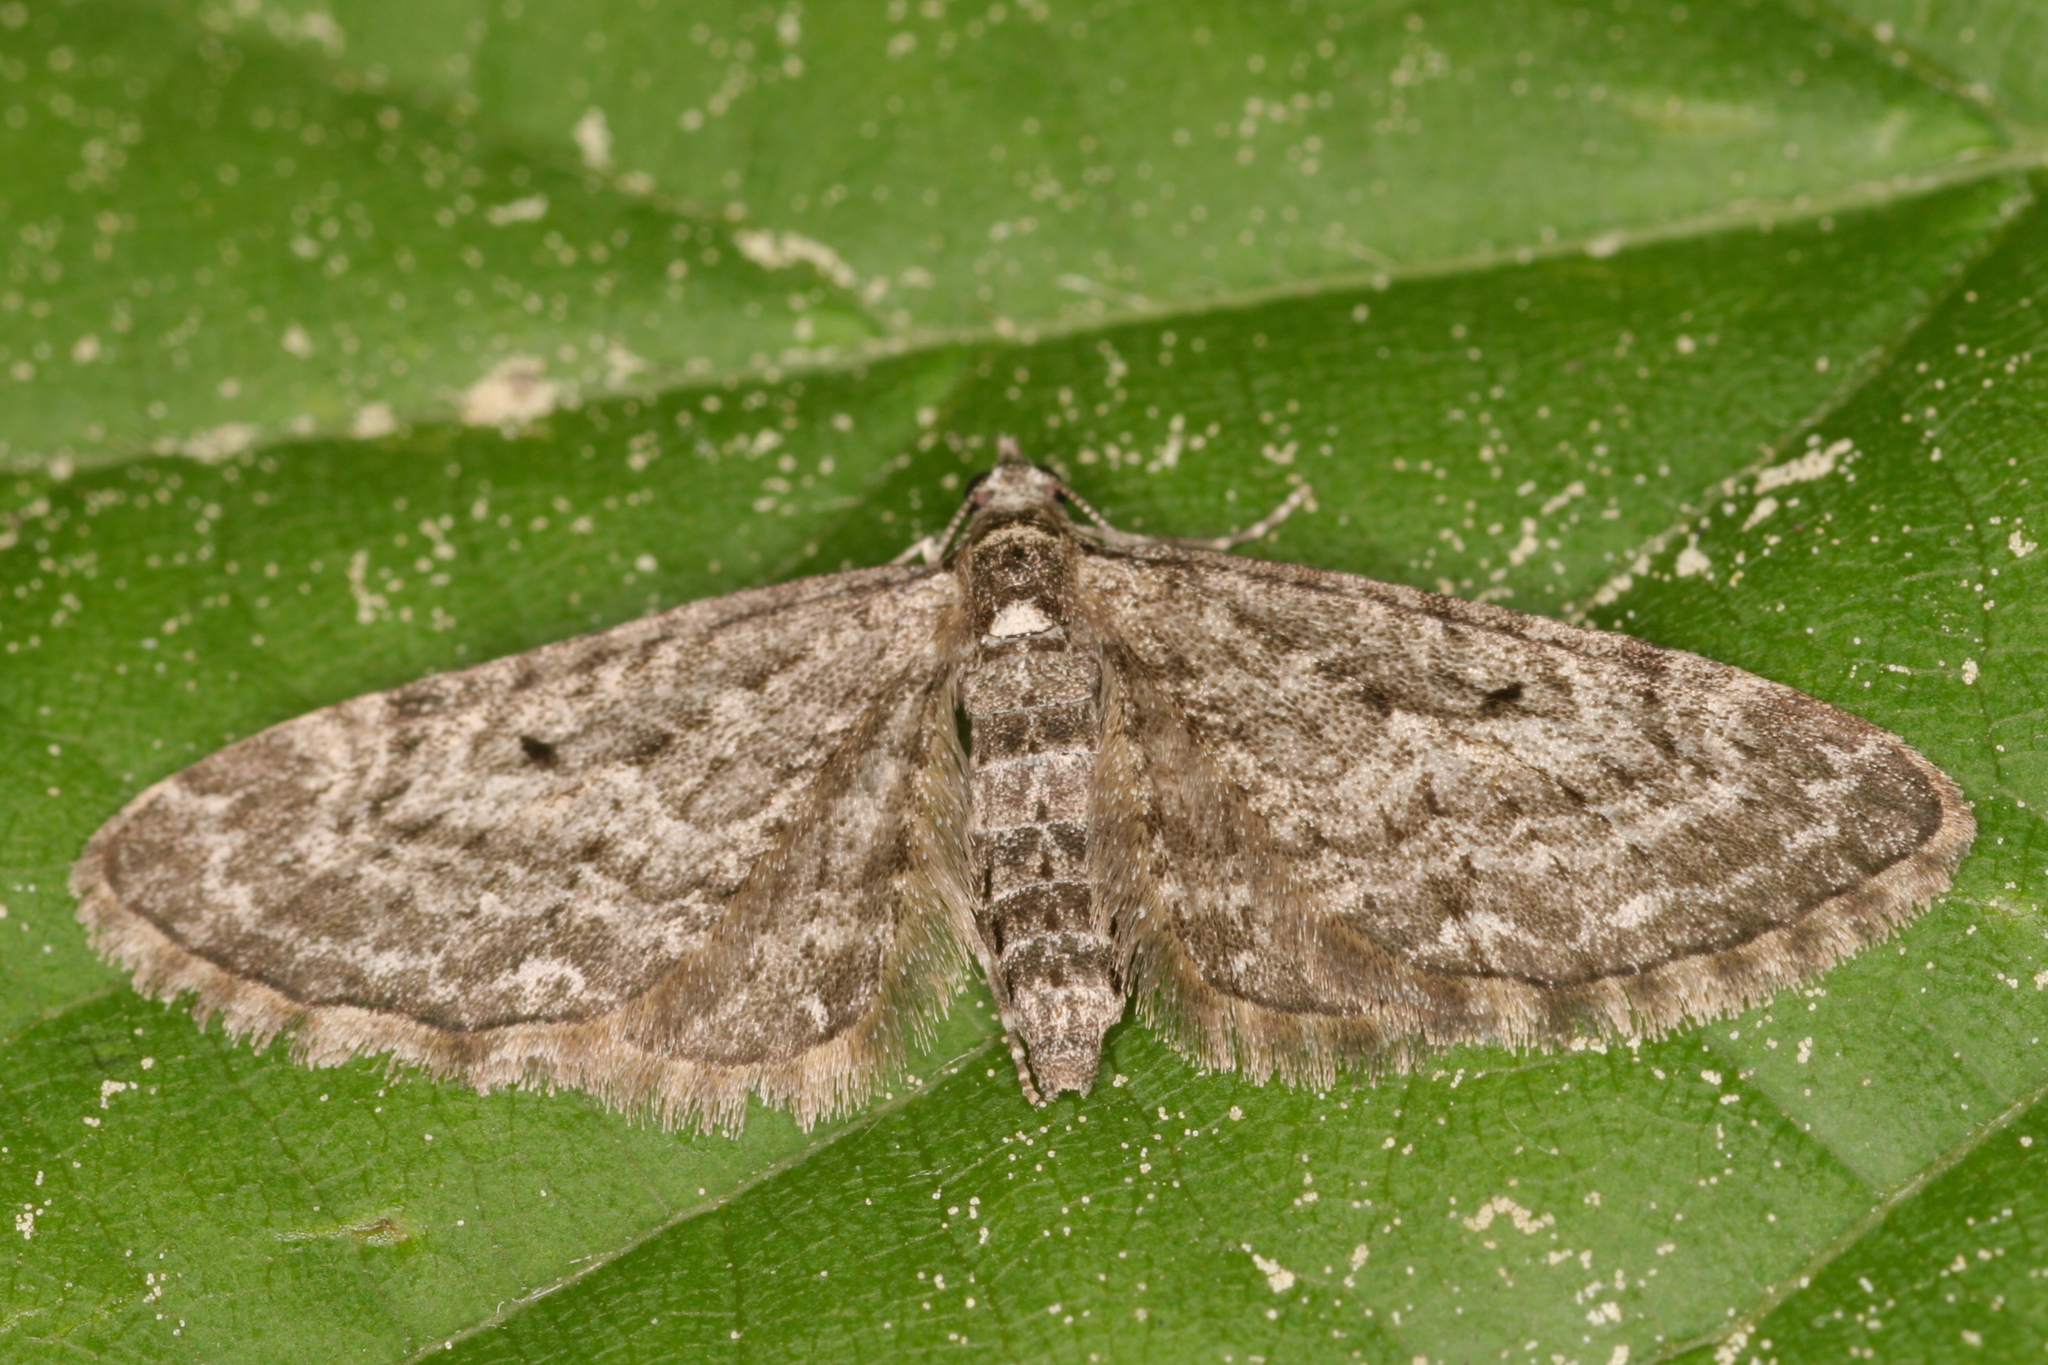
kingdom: Animalia
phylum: Arthropoda
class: Insecta
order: Lepidoptera
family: Geometridae
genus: Eupithecia
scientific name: Eupithecia lariciata
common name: Larch pug
